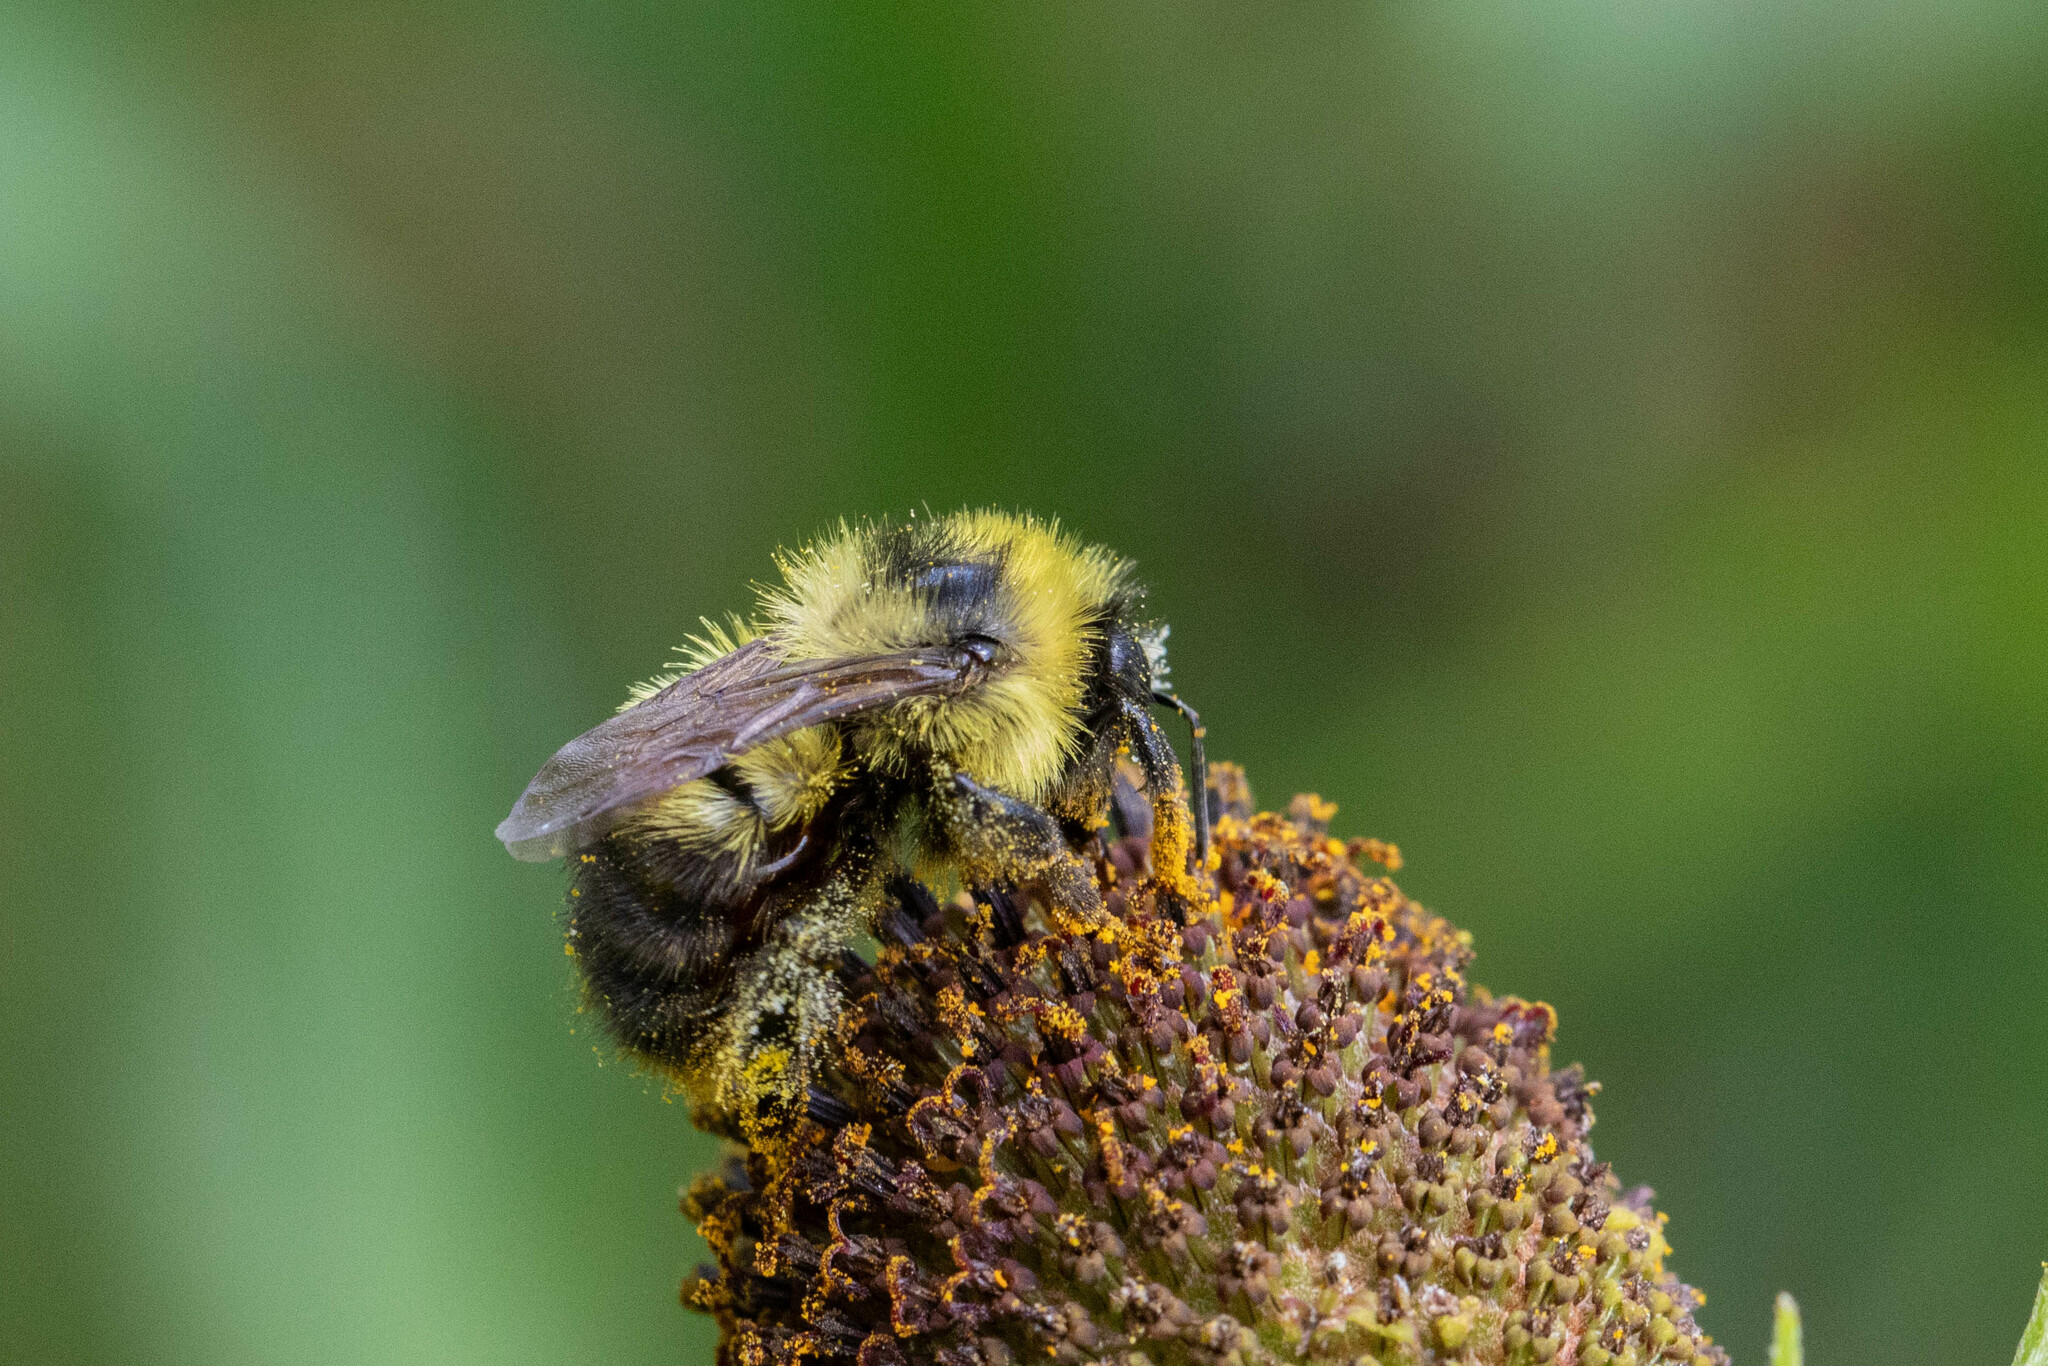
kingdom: Animalia
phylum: Arthropoda
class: Insecta
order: Hymenoptera
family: Apidae
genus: Bombus
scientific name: Bombus rufocinctus
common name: Red-belted bumble bee
